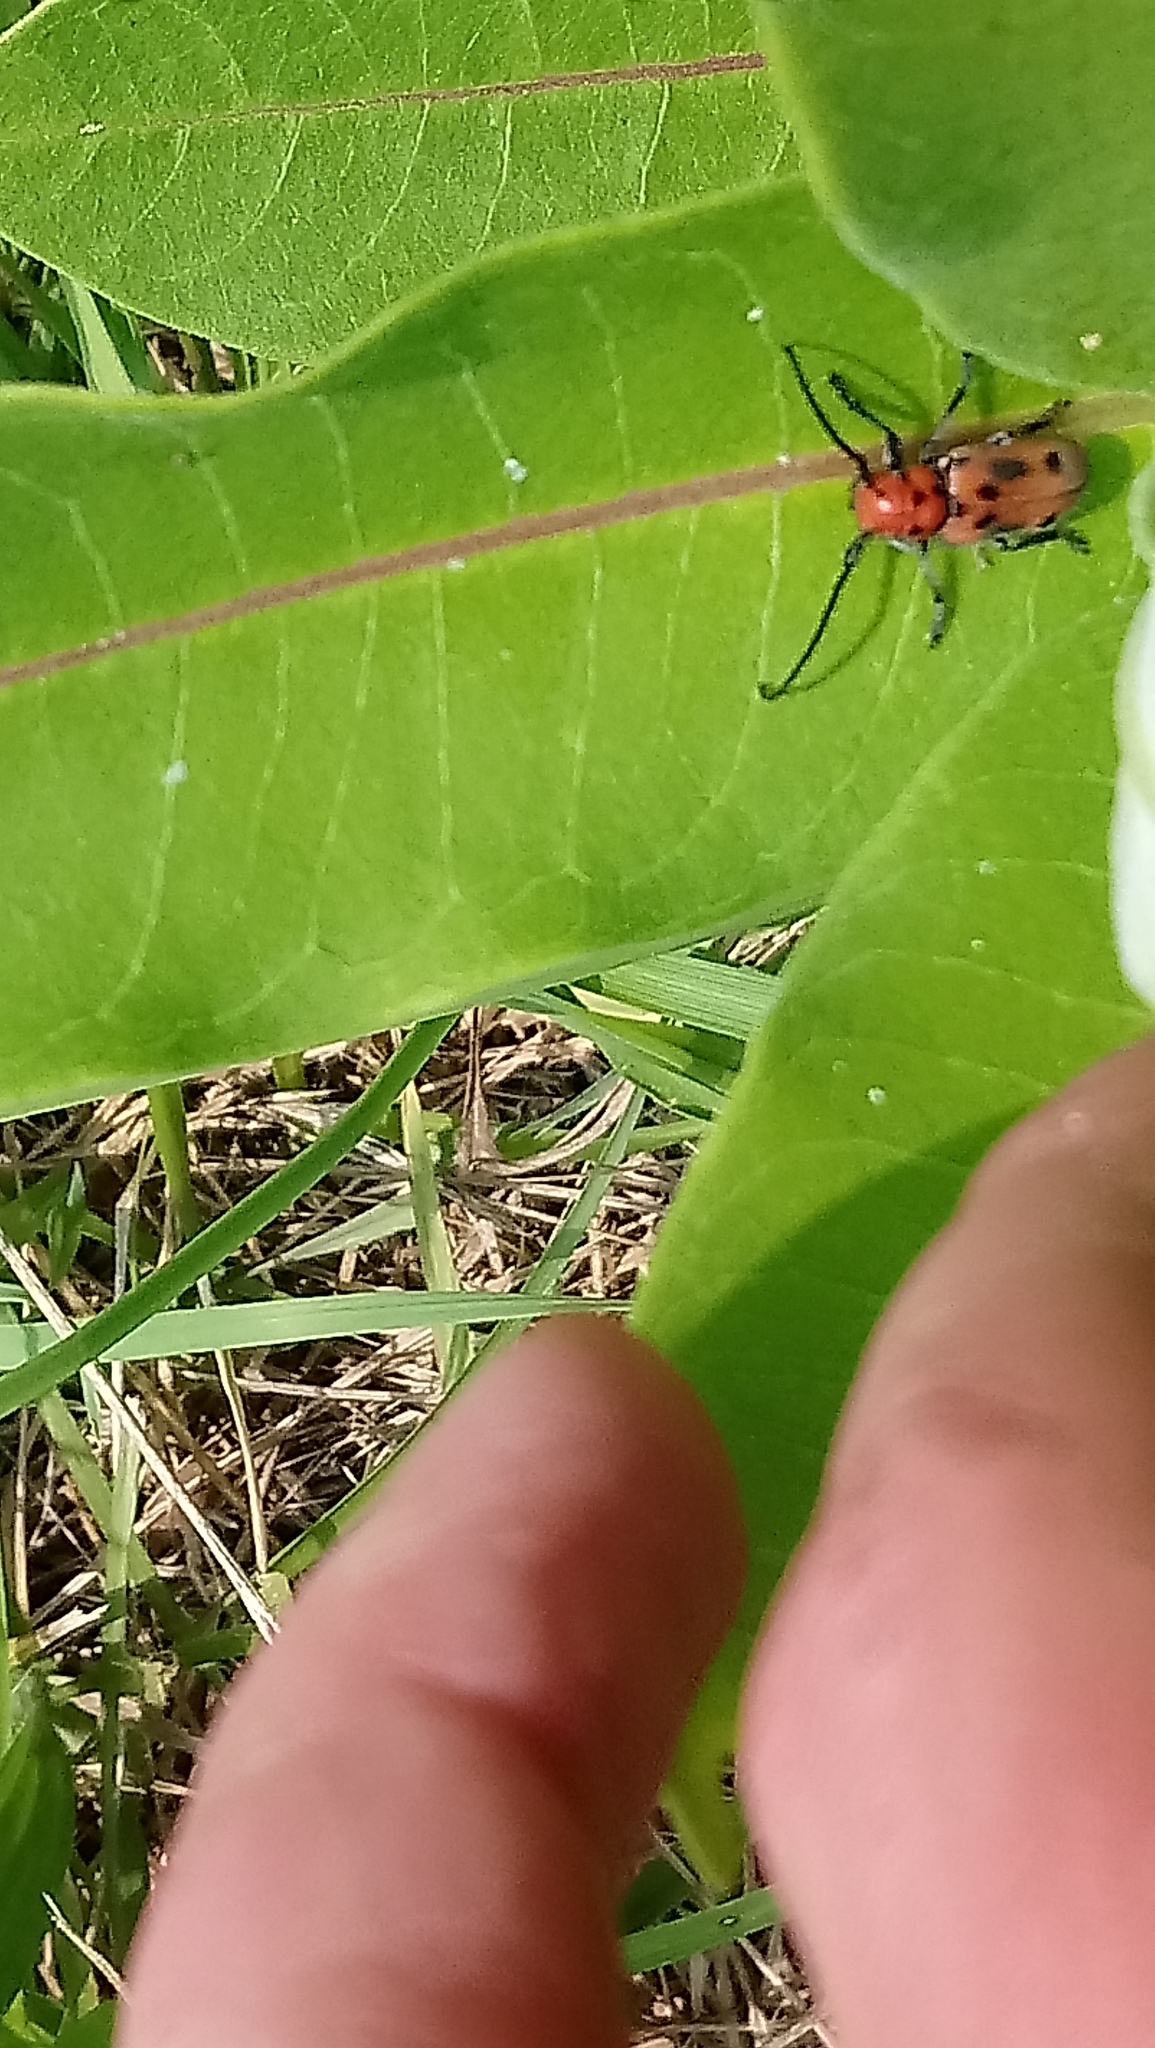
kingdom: Animalia
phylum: Arthropoda
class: Insecta
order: Coleoptera
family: Cerambycidae
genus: Tetraopes
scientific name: Tetraopes tetrophthalmus
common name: Red milkweed beetle
